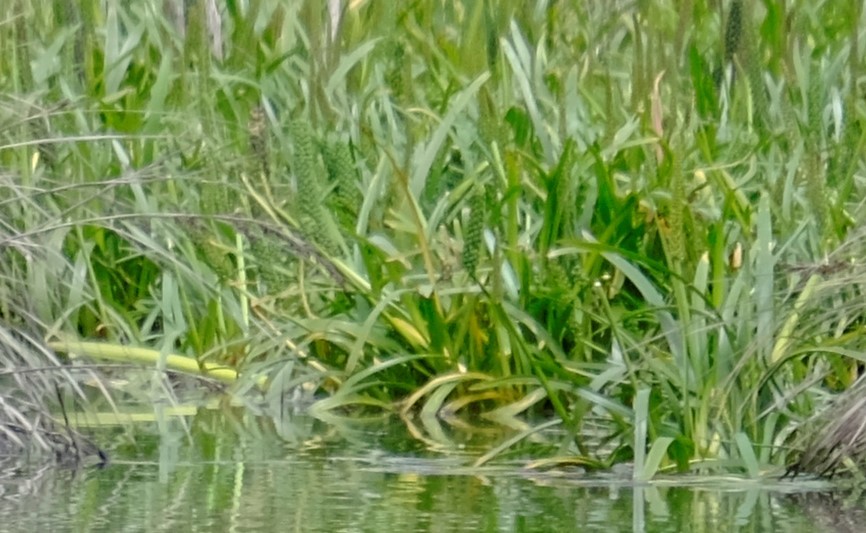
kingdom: Plantae
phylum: Tracheophyta
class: Liliopsida
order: Alismatales
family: Juncaginaceae
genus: Cycnogeton
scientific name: Cycnogeton procerum
